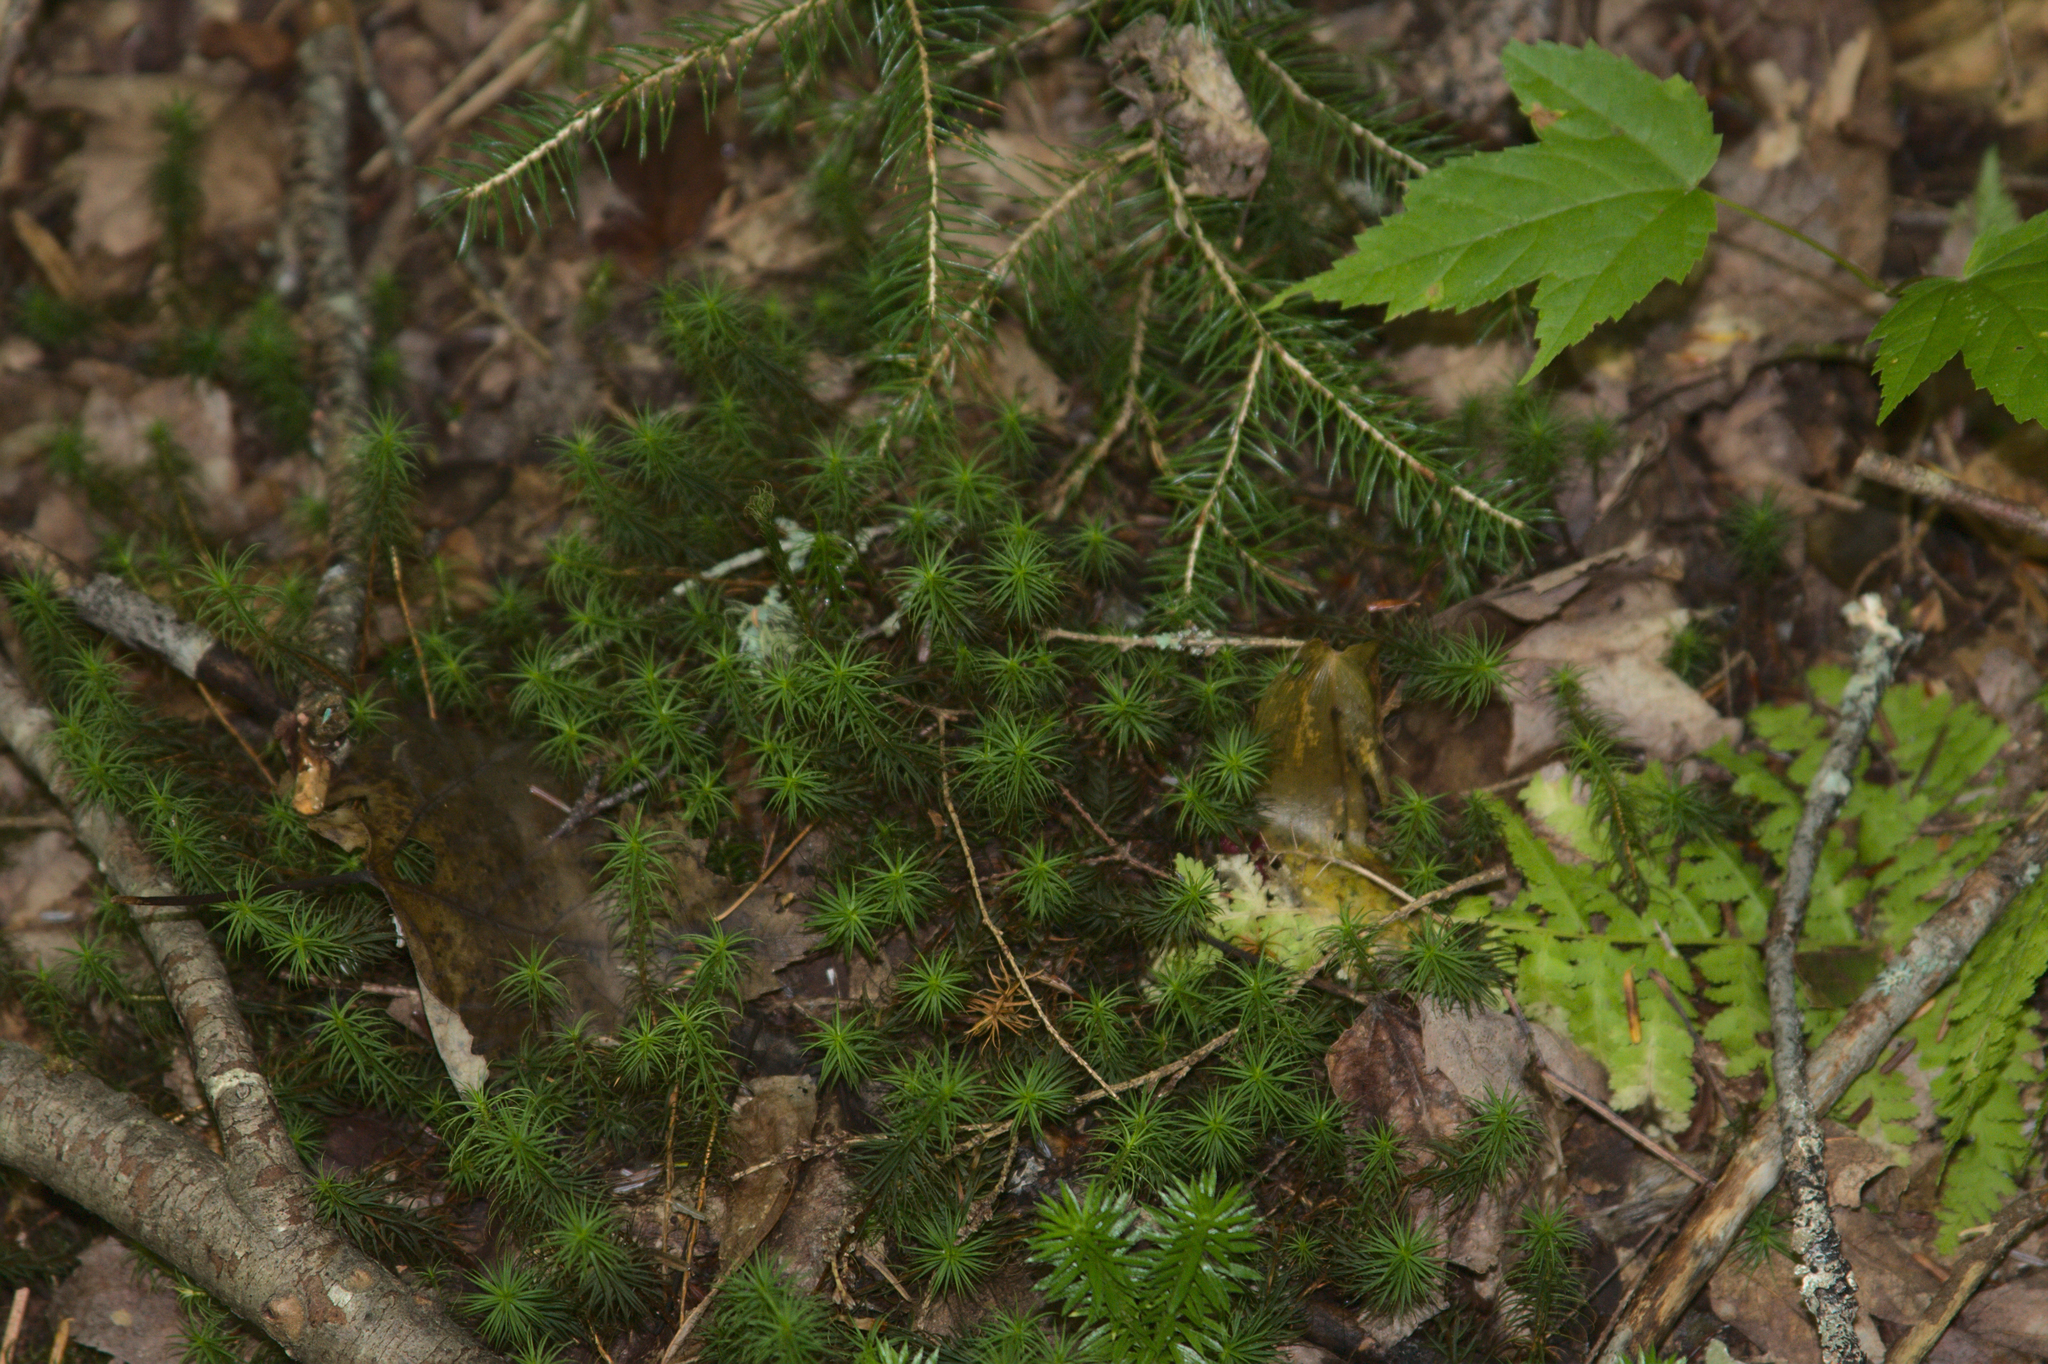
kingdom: Plantae
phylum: Tracheophyta
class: Magnoliopsida
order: Sapindales
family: Sapindaceae
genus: Acer
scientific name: Acer rubrum
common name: Red maple
